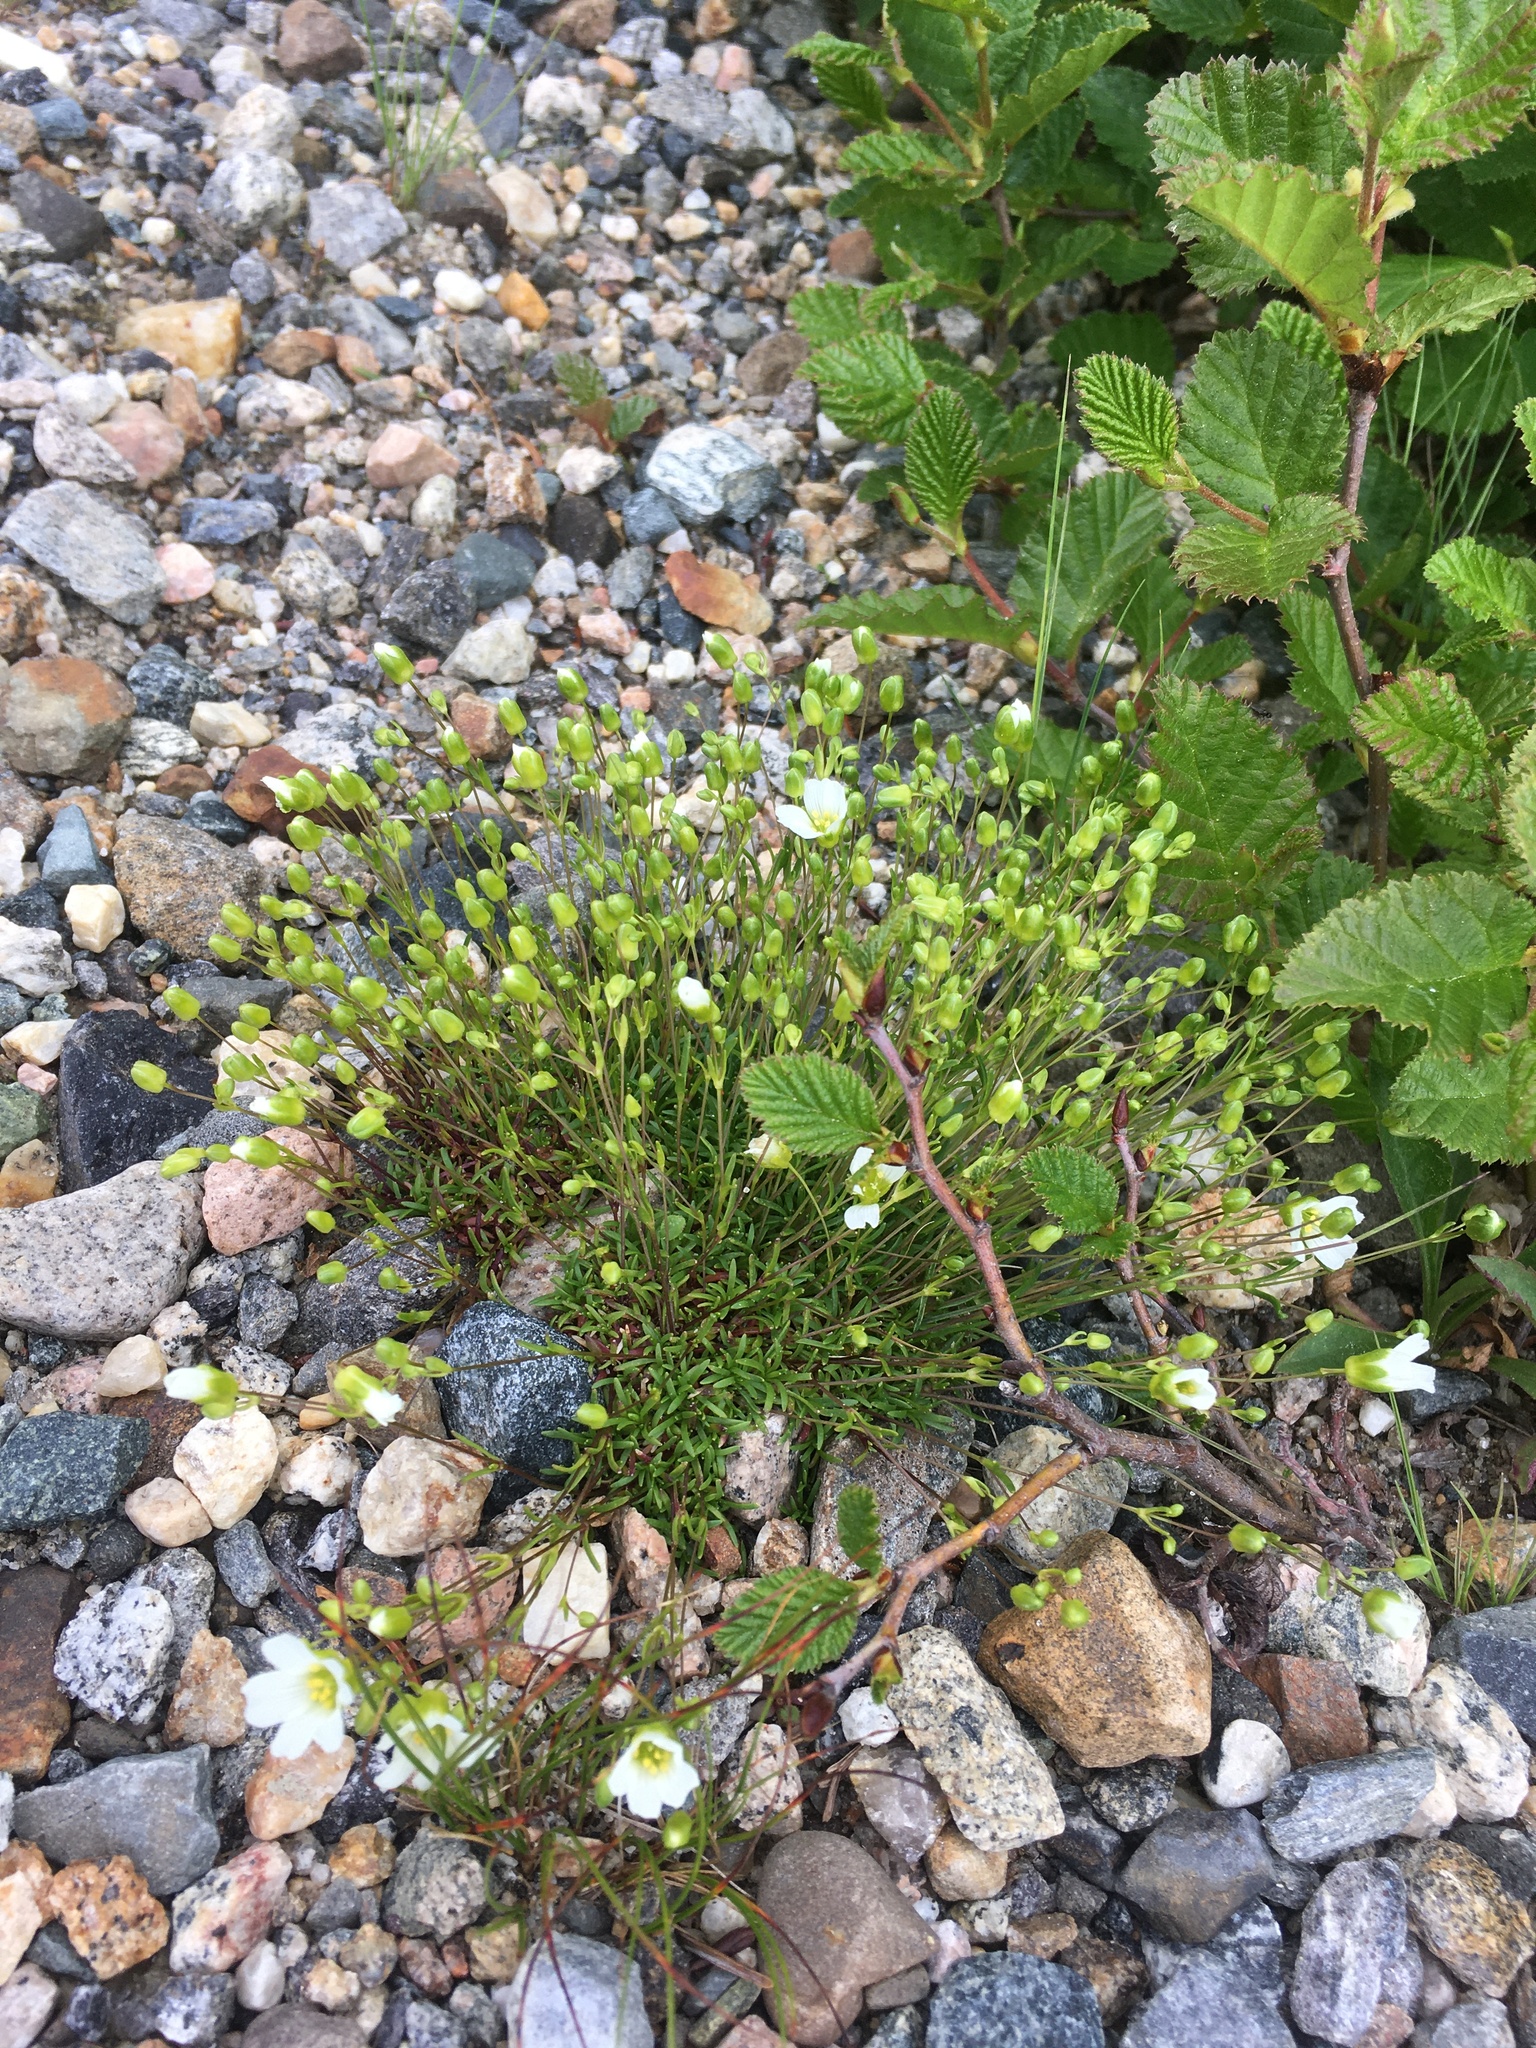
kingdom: Plantae
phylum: Tracheophyta
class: Magnoliopsida
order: Caryophyllales
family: Caryophyllaceae
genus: Geocarpon
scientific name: Geocarpon groenlandicum
